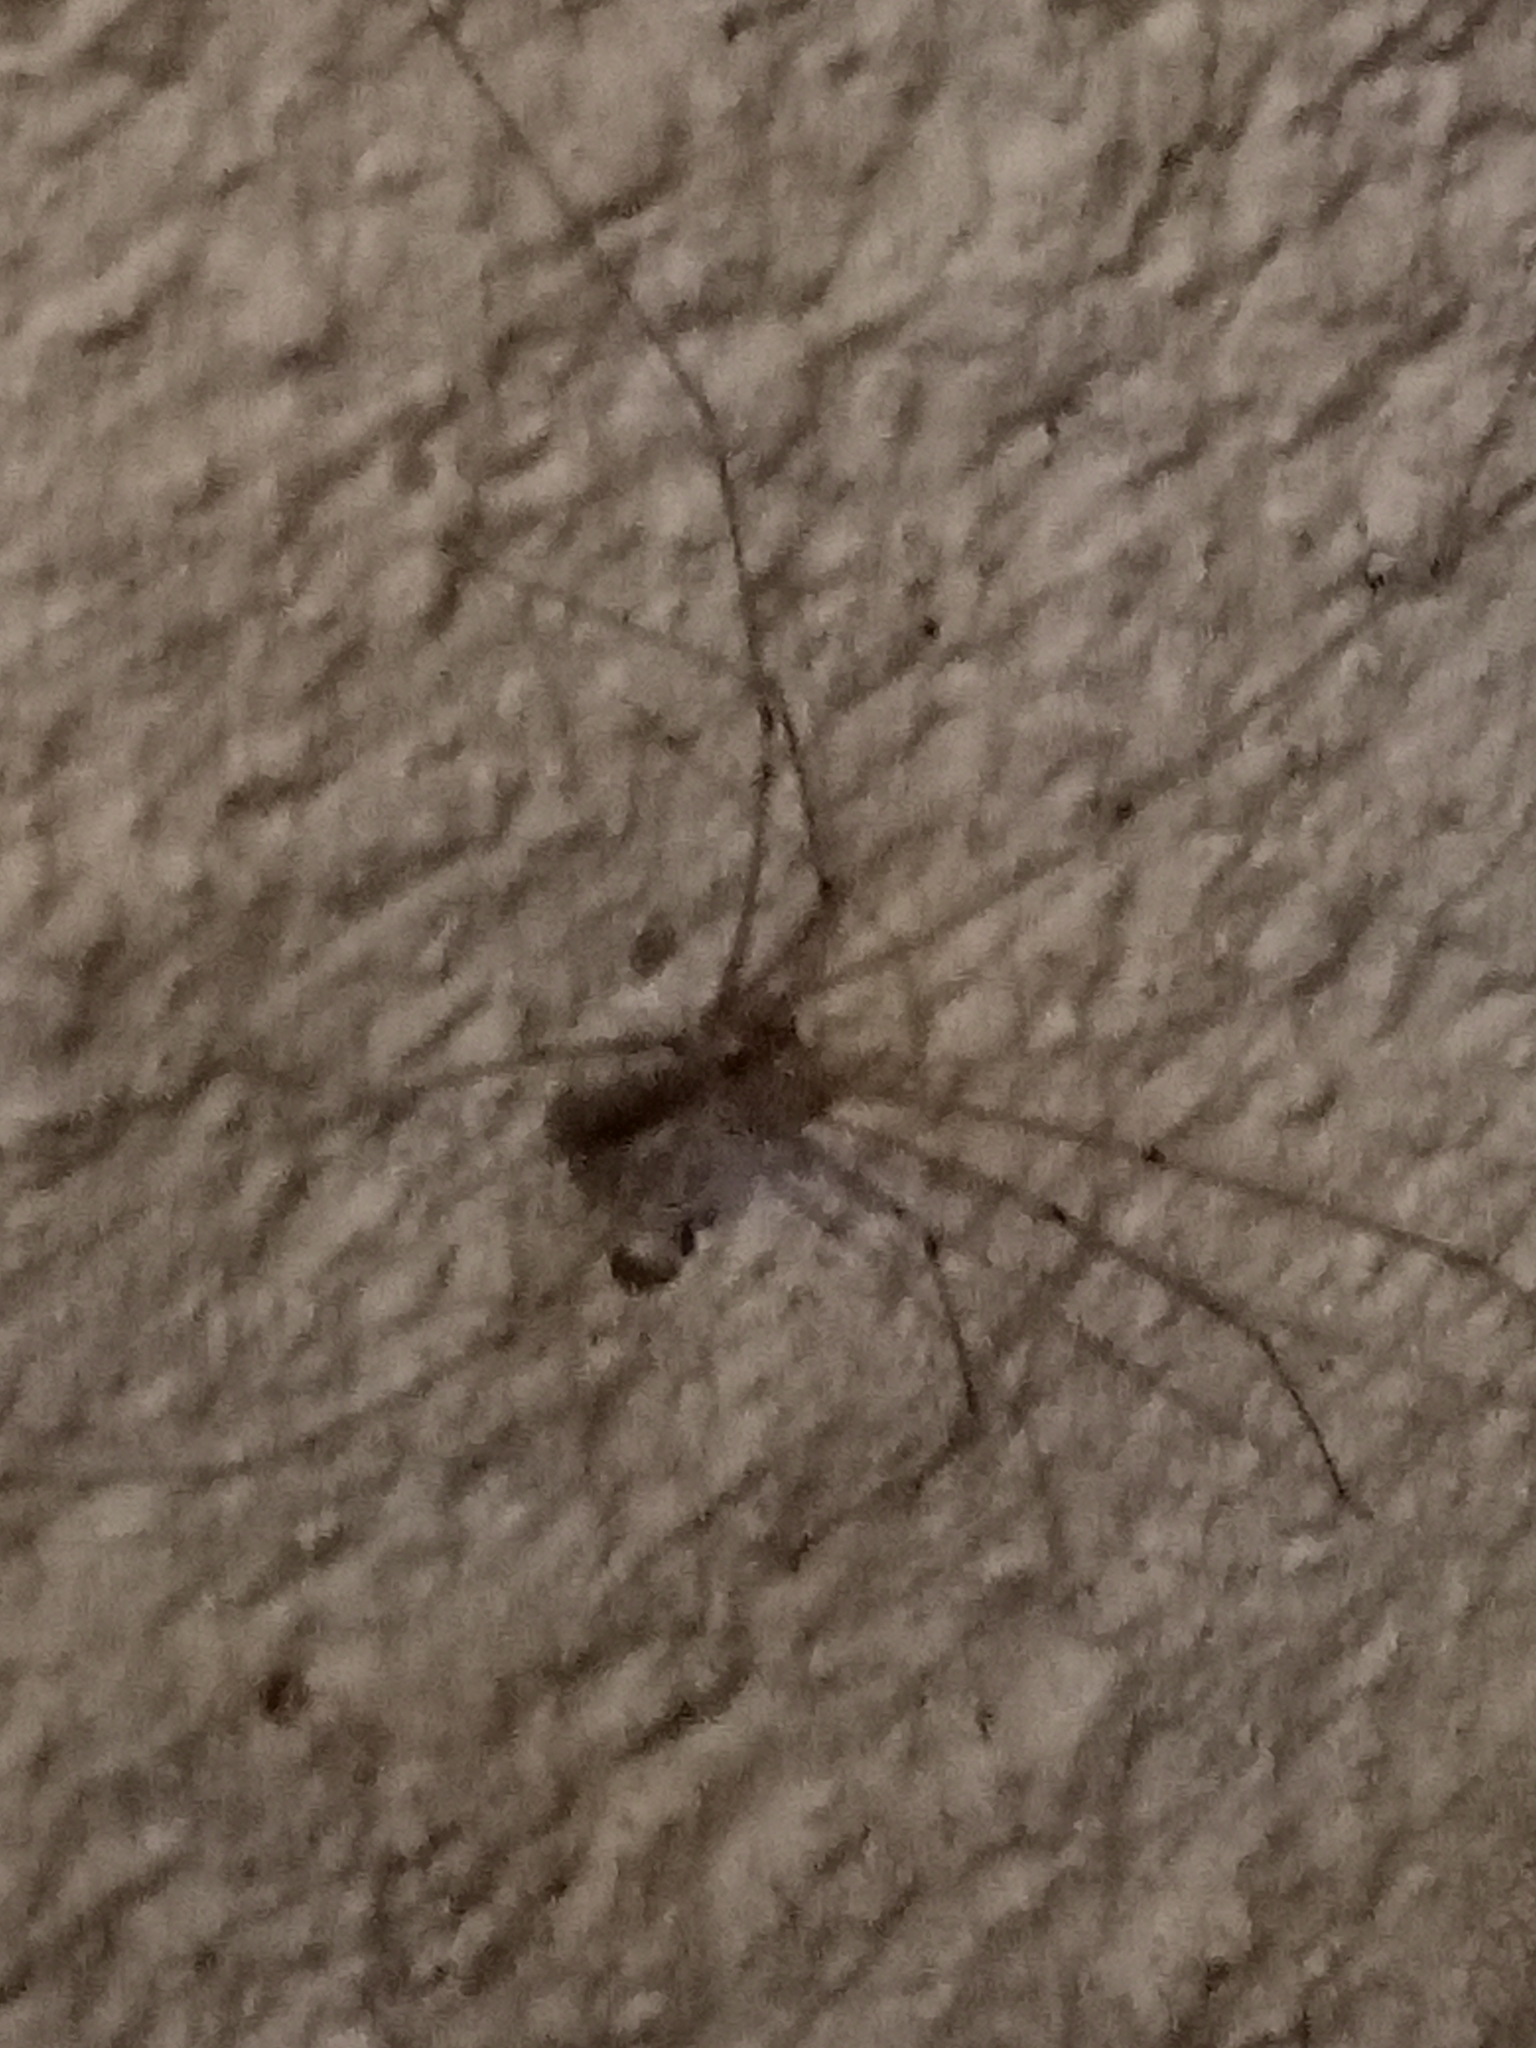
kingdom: Animalia
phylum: Arthropoda
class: Arachnida
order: Araneae
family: Pholcidae
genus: Pholcus
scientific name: Pholcus phalangioides
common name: Longbodied cellar spider
